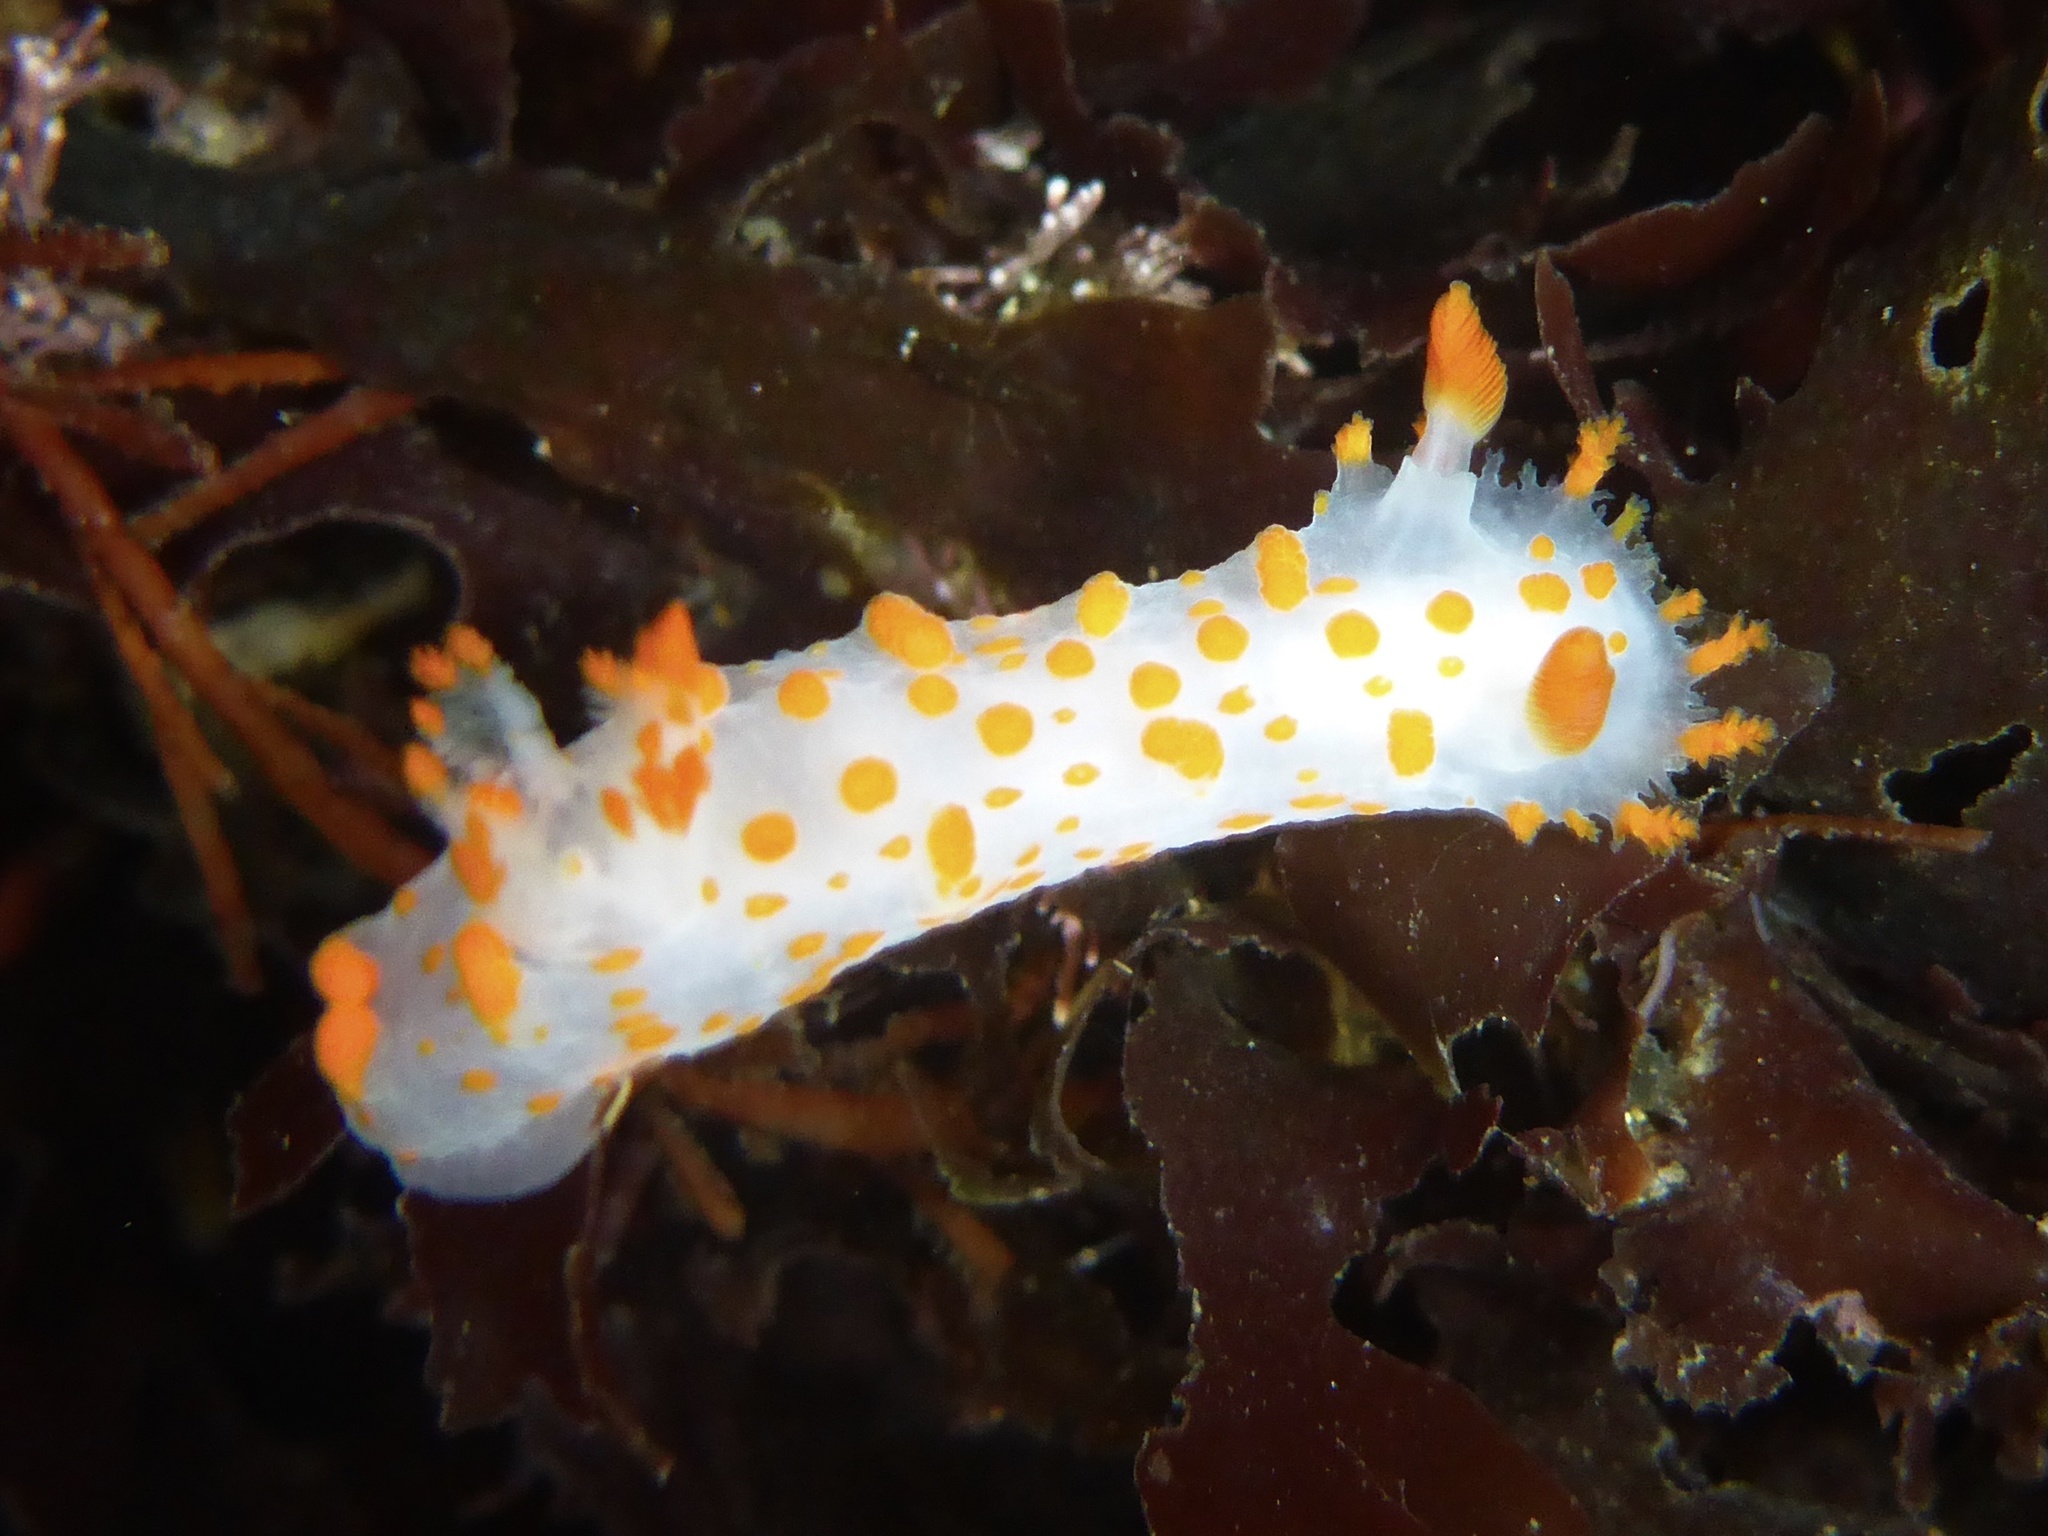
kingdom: Animalia
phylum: Mollusca
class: Gastropoda
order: Nudibranchia
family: Polyceridae
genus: Triopha
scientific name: Triopha catalinae
